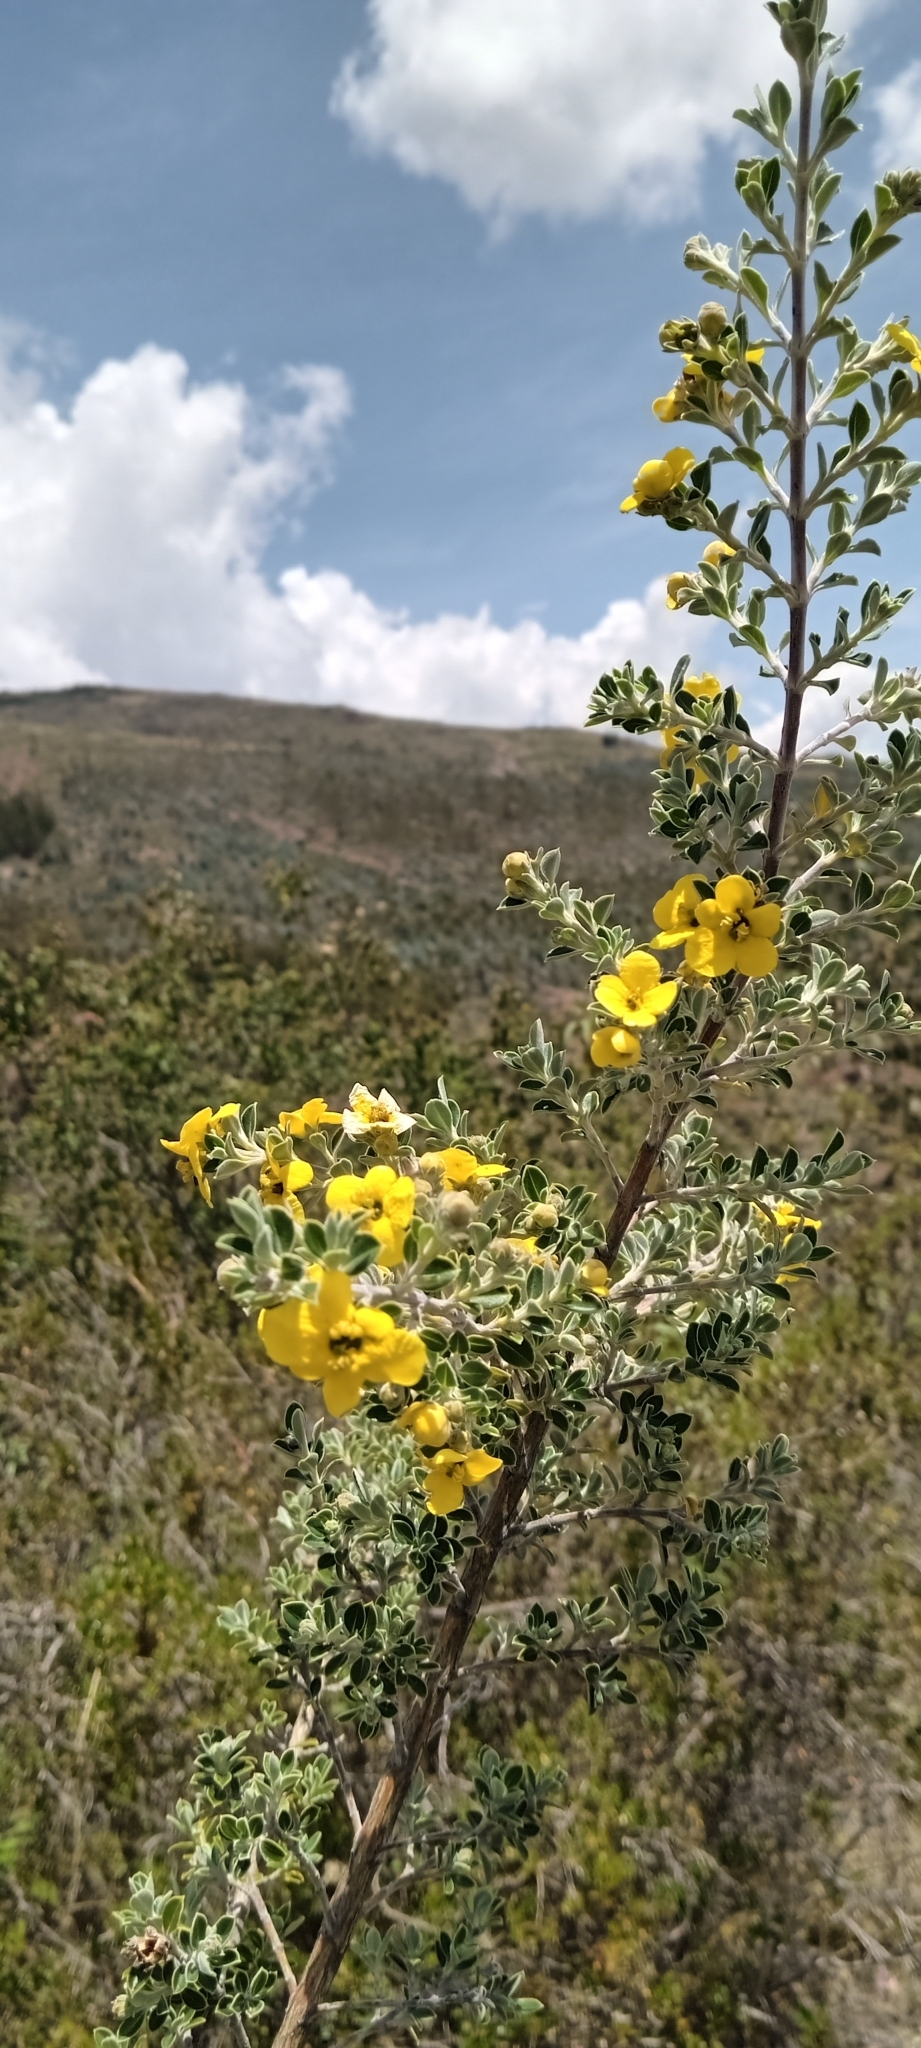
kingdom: Plantae
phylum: Tracheophyta
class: Magnoliopsida
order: Bruniales
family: Columelliaceae
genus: Columellia
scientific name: Columellia obovata
